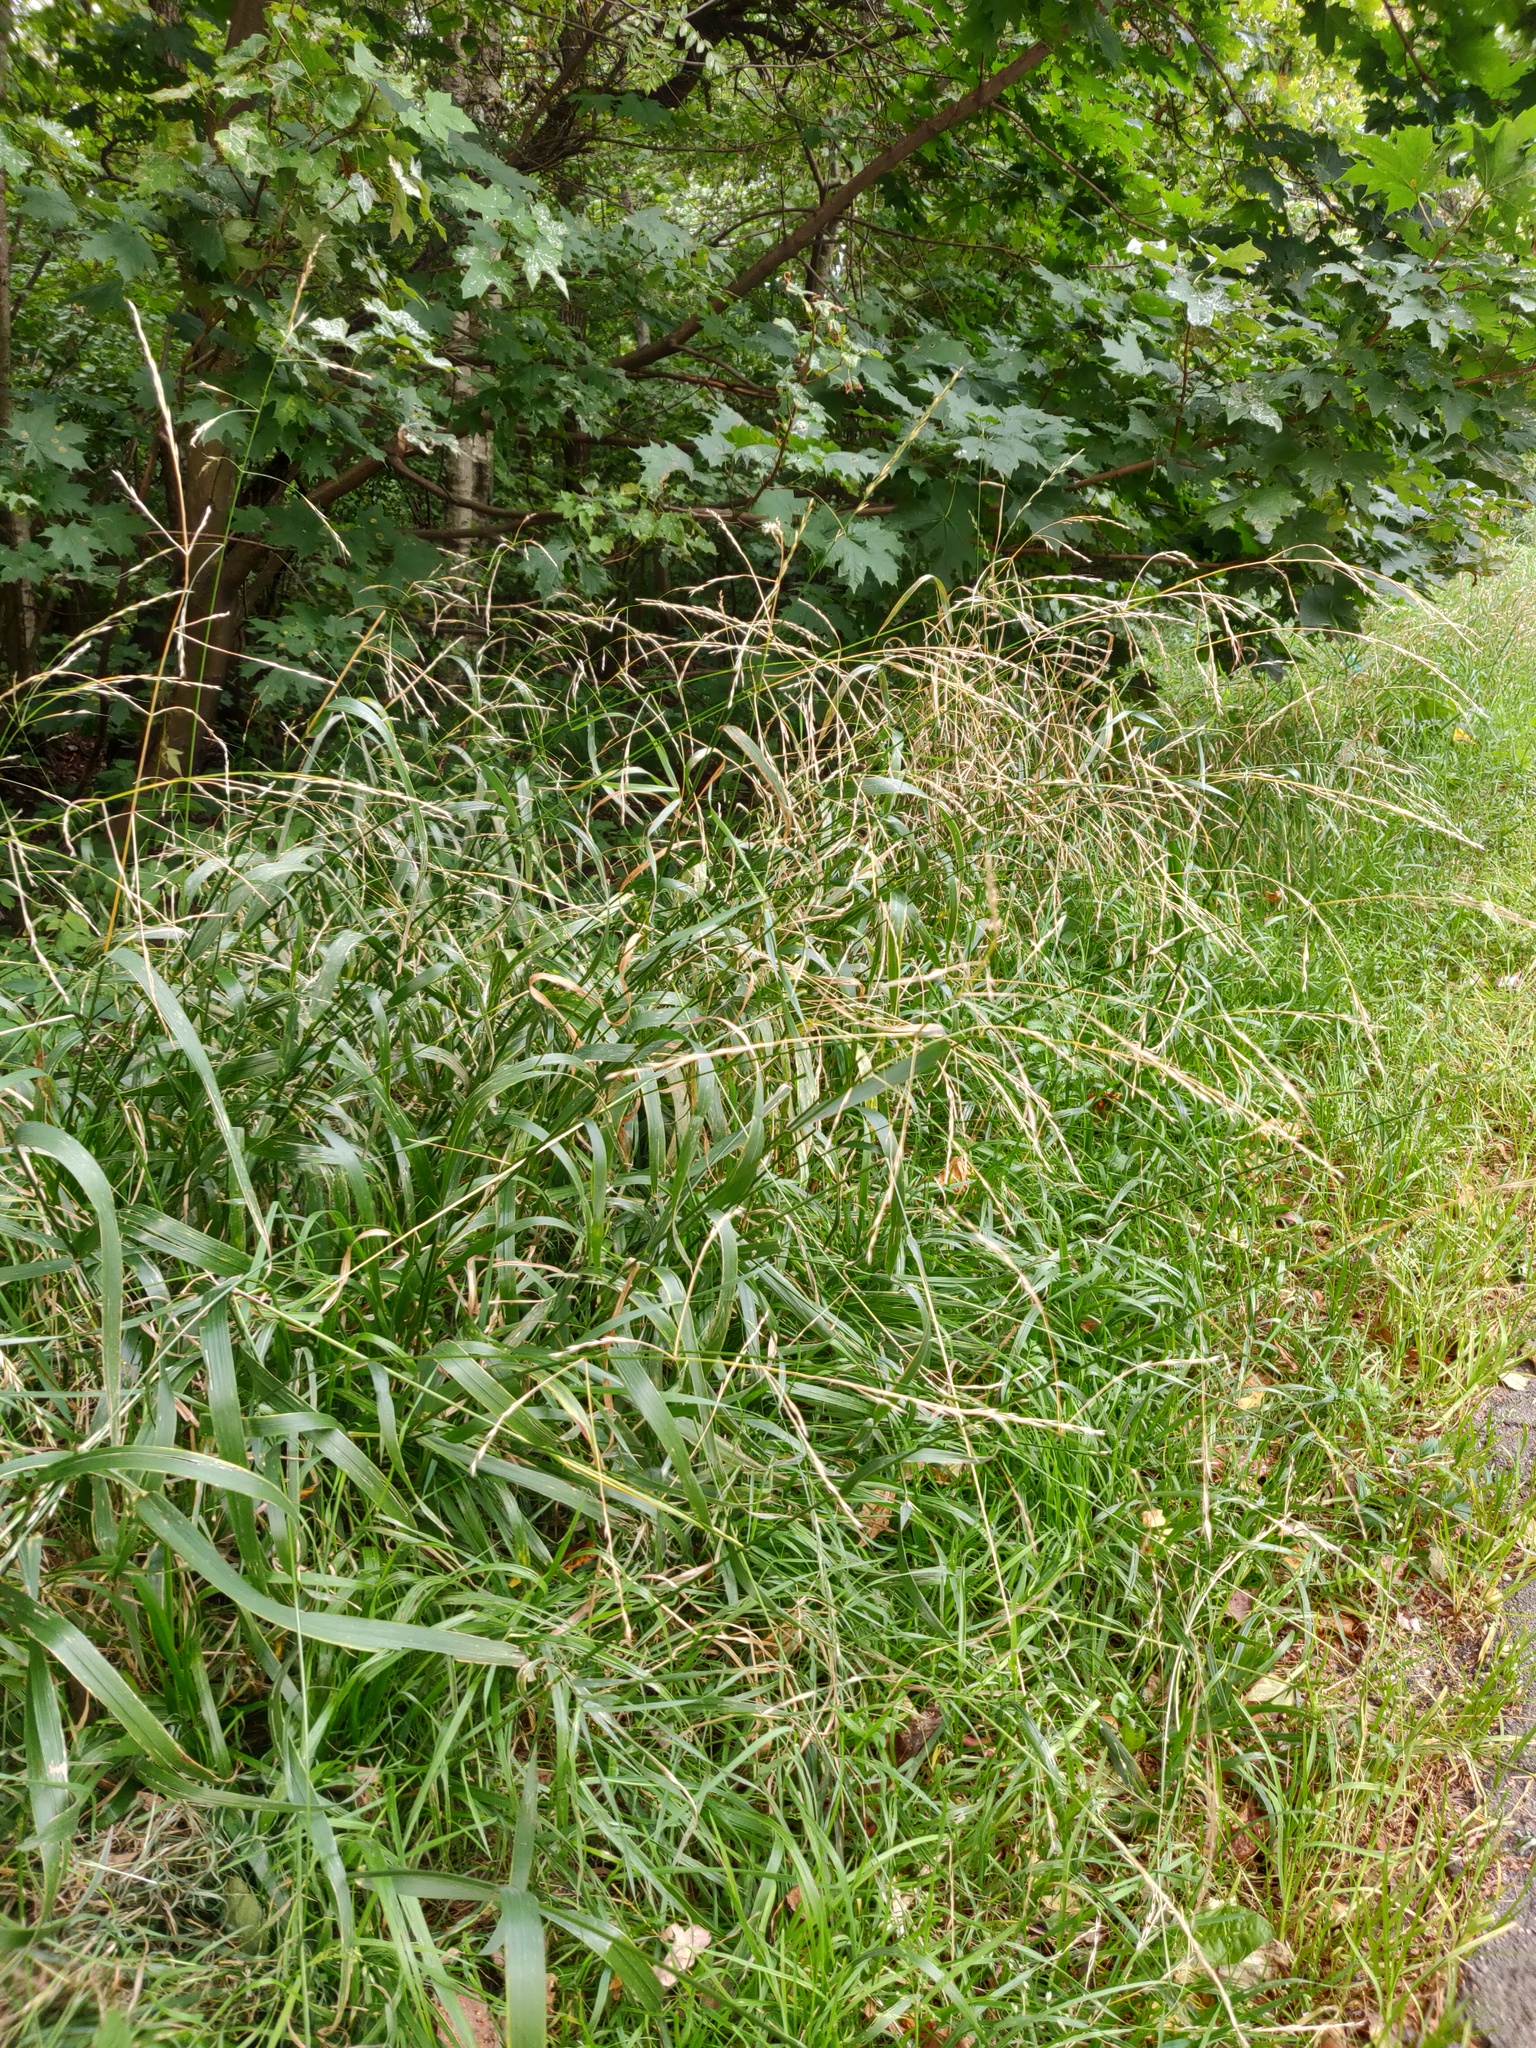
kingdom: Plantae
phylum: Tracheophyta
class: Liliopsida
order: Poales
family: Poaceae
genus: Lolium
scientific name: Lolium giganteum
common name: Giant fescue
